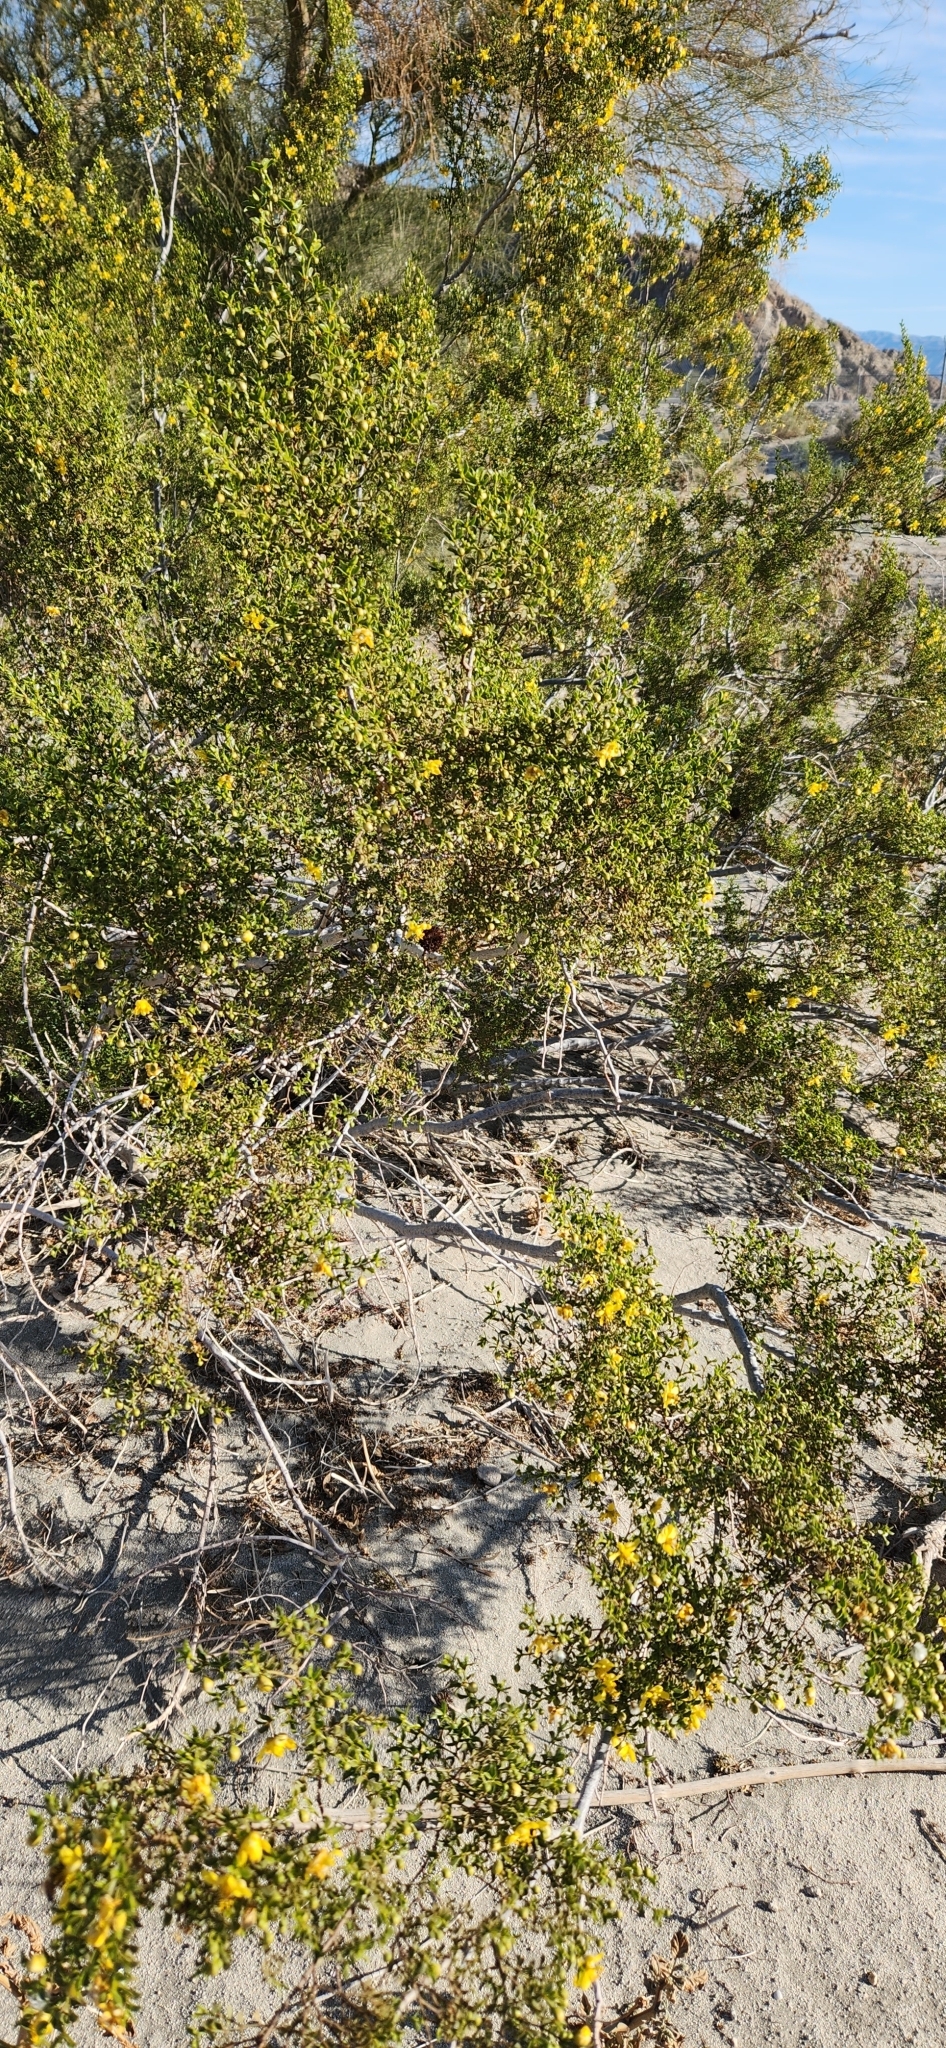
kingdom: Plantae
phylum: Tracheophyta
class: Magnoliopsida
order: Zygophyllales
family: Zygophyllaceae
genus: Larrea
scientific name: Larrea tridentata
